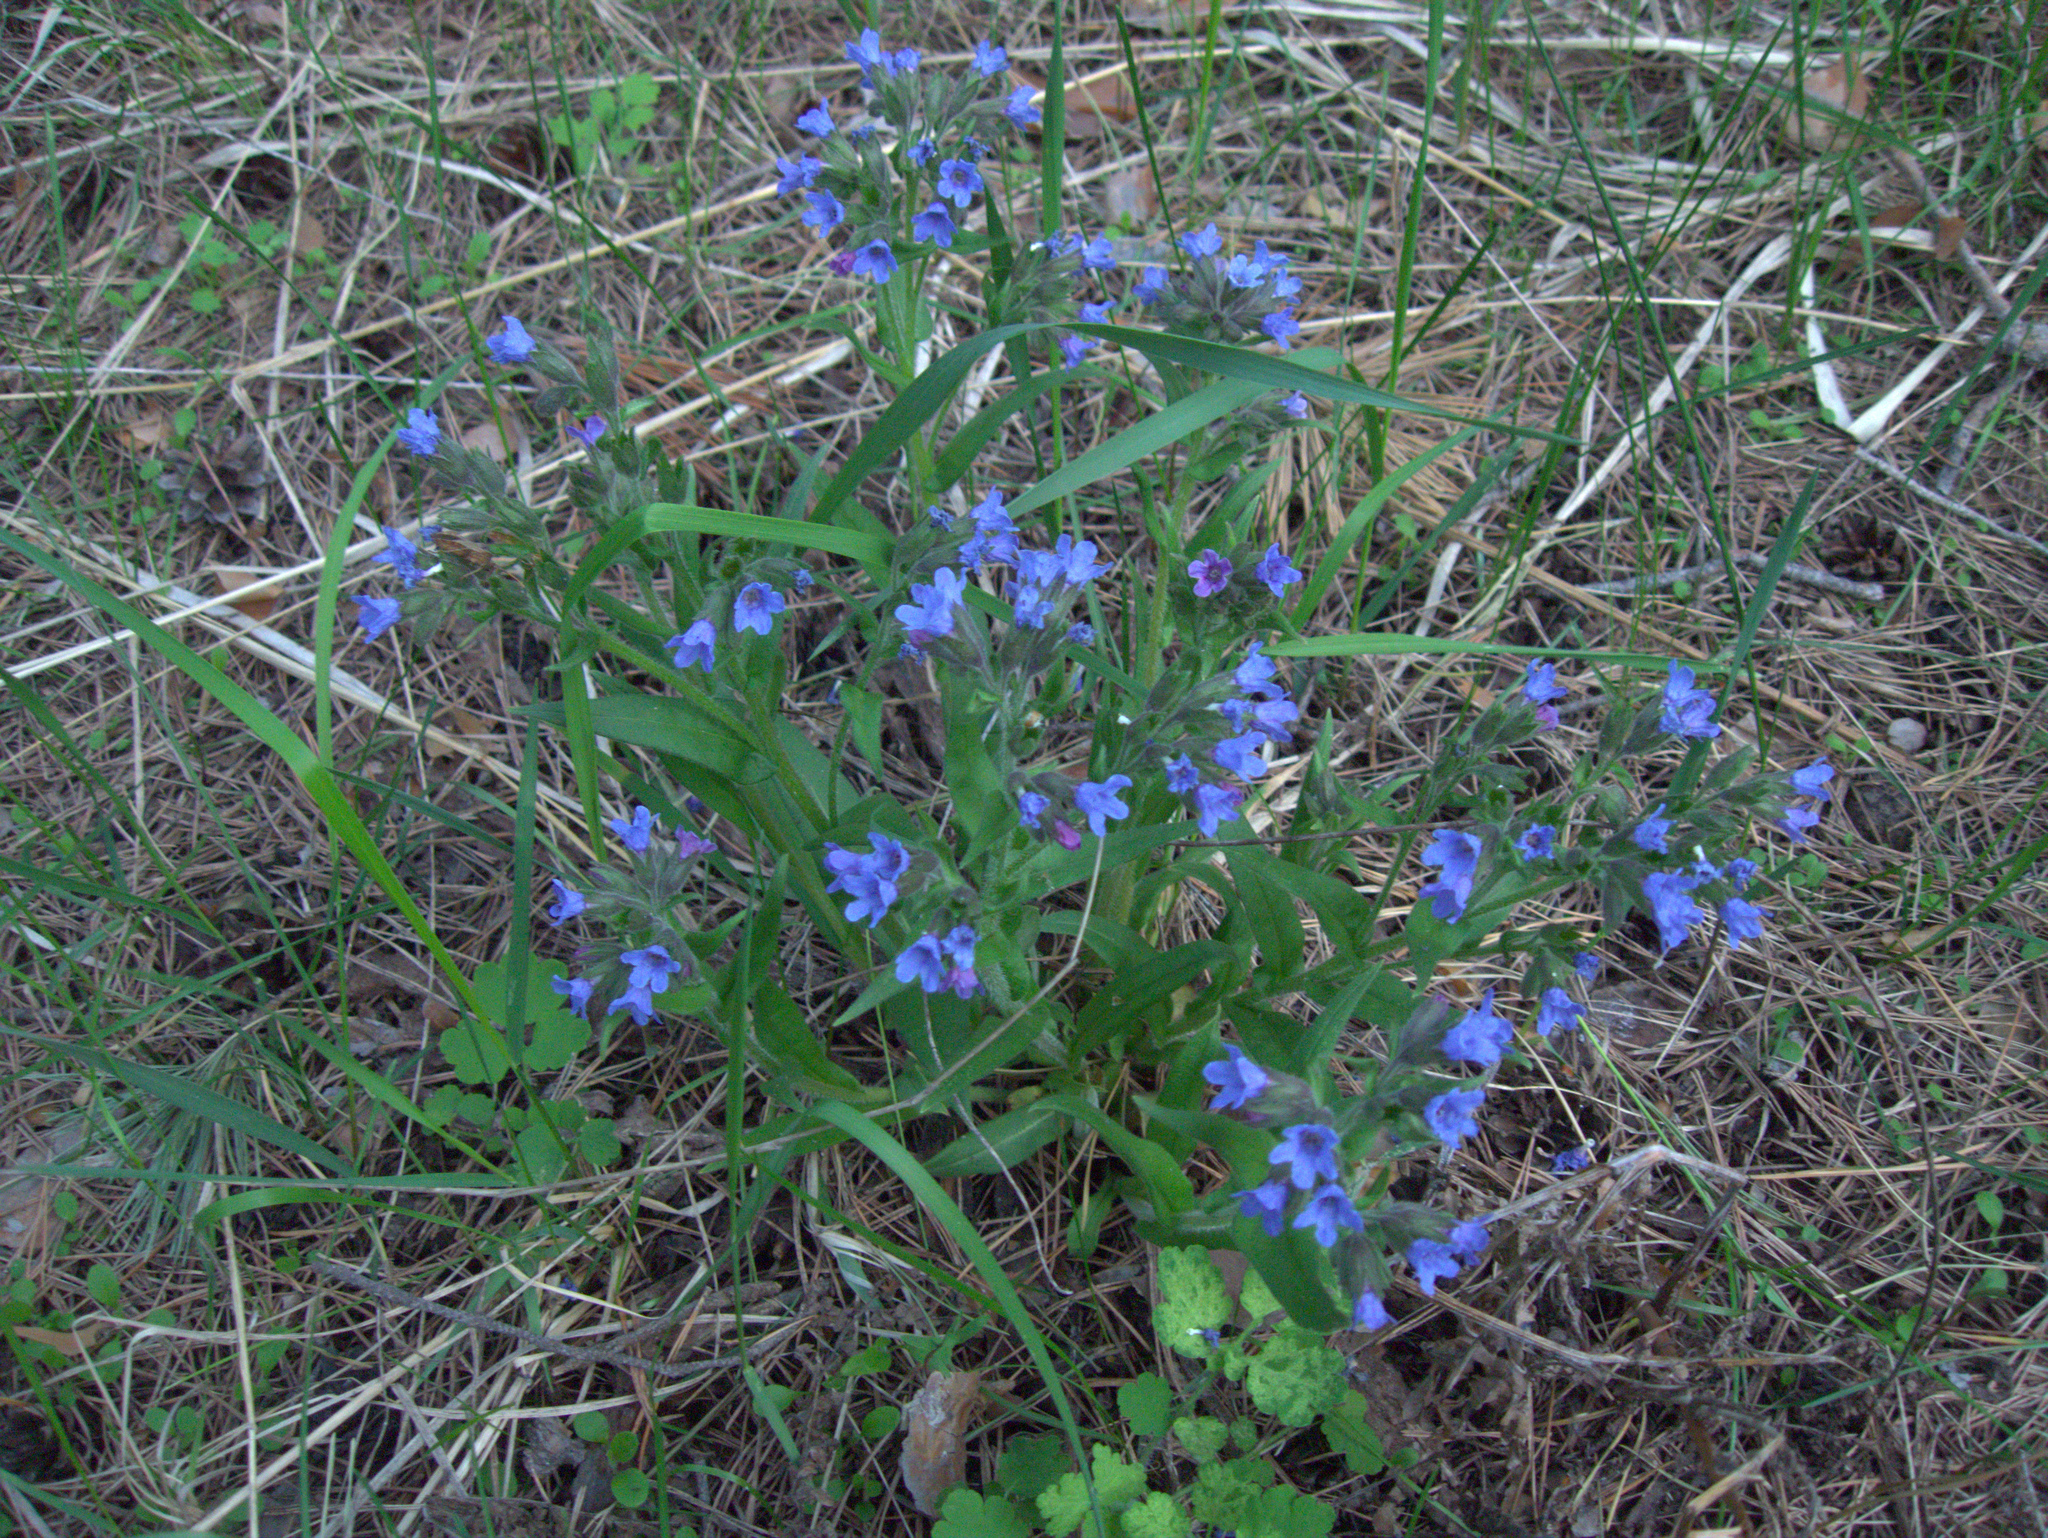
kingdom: Plantae
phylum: Tracheophyta
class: Magnoliopsida
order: Boraginales
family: Boraginaceae
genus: Pulmonaria
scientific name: Pulmonaria angustifolia
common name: Blue cowslip
